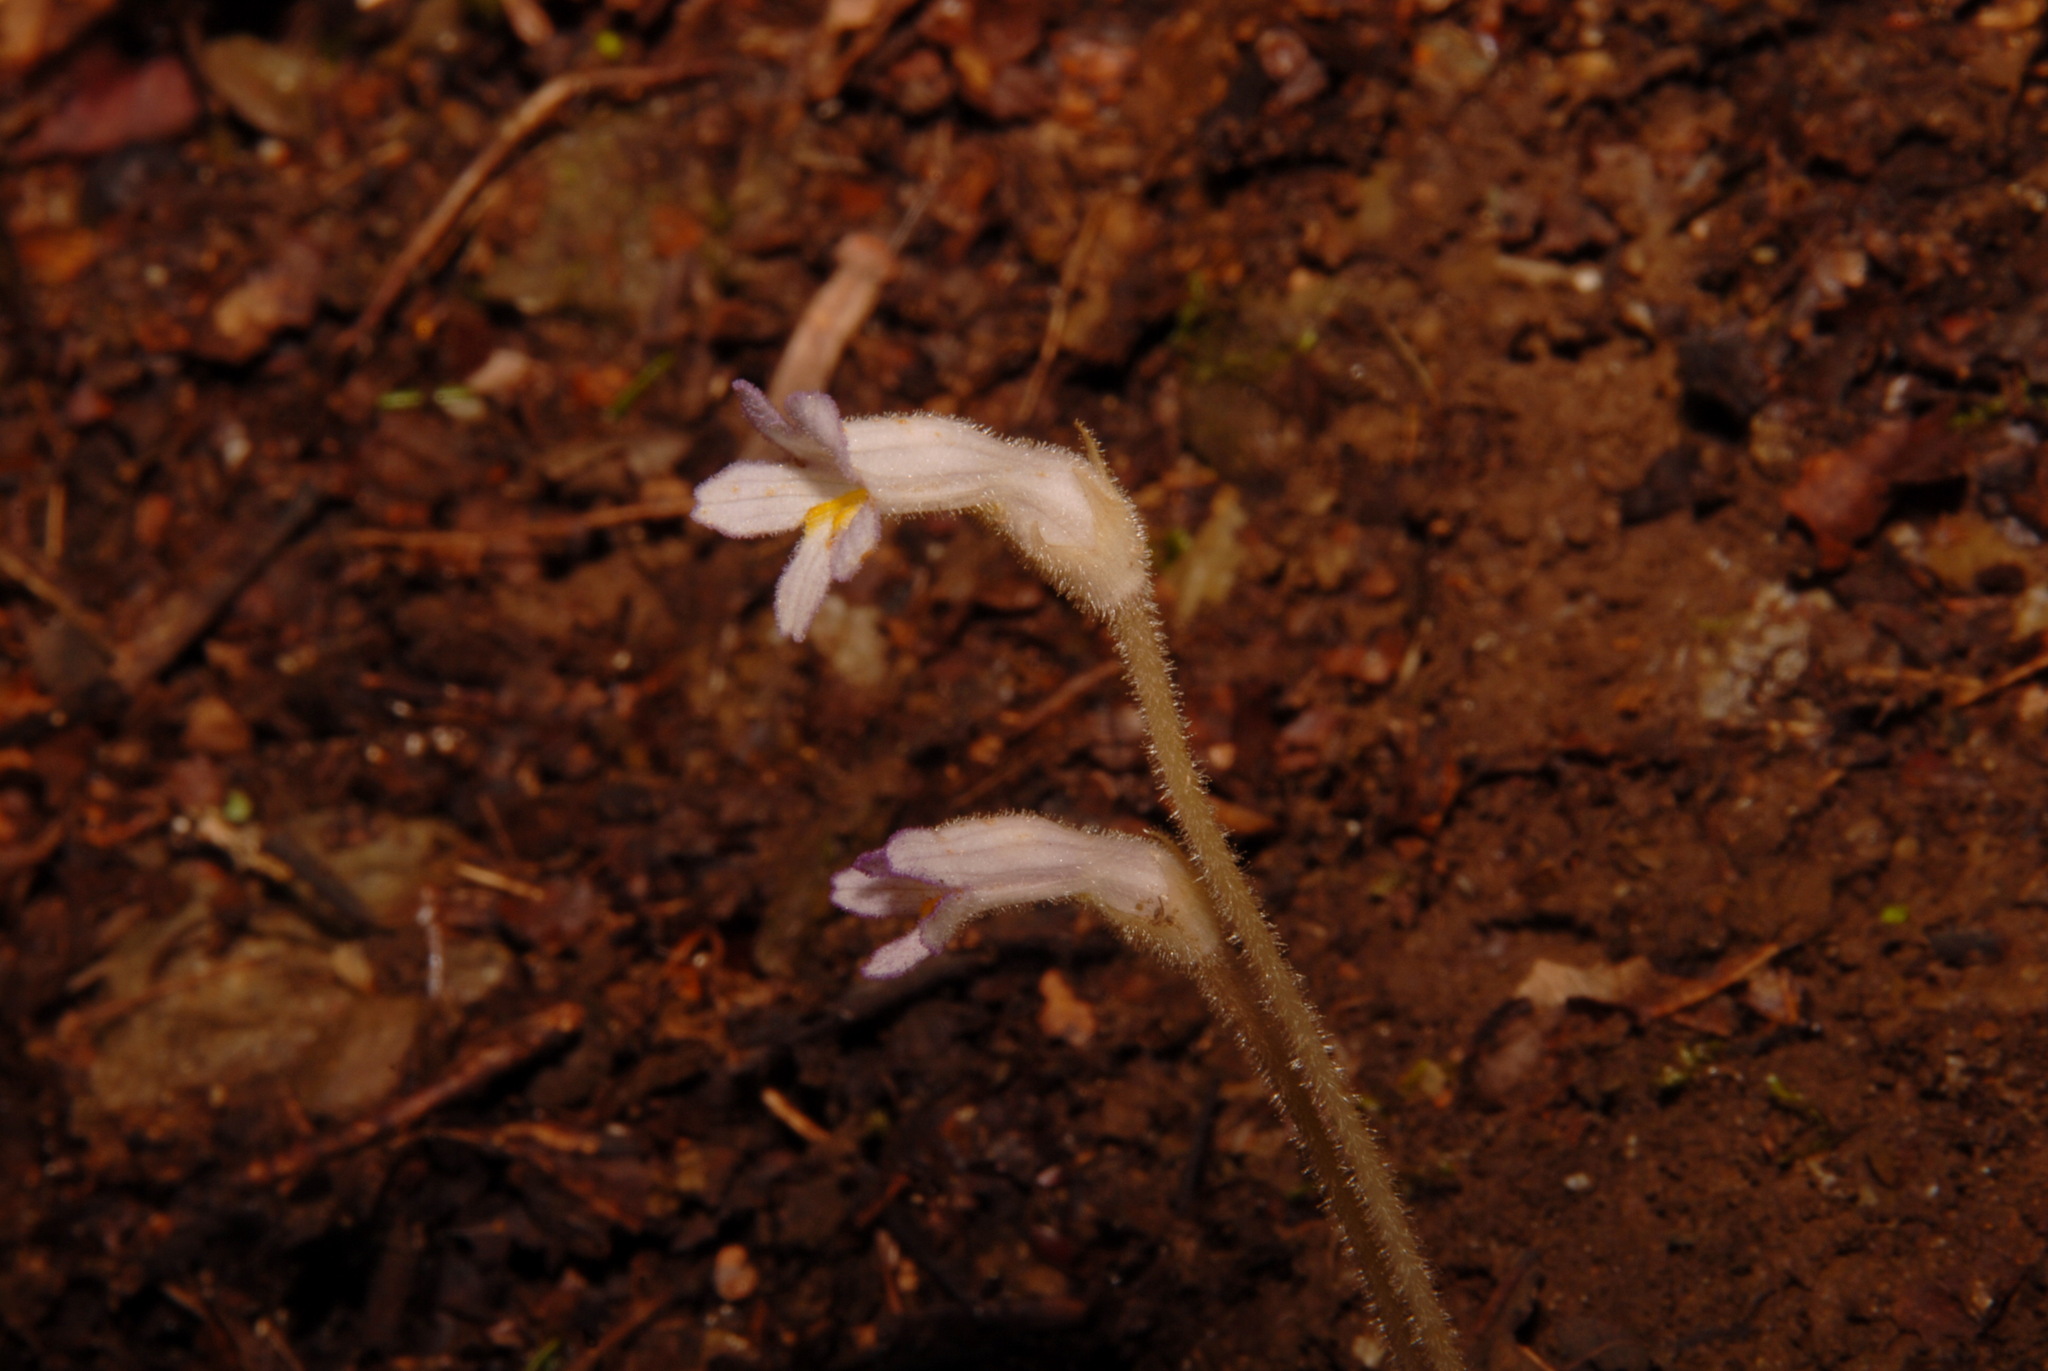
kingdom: Plantae
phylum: Tracheophyta
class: Magnoliopsida
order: Lamiales
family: Orobanchaceae
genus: Aphyllon
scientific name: Aphyllon uniflorum
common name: One-flowered broomrape
